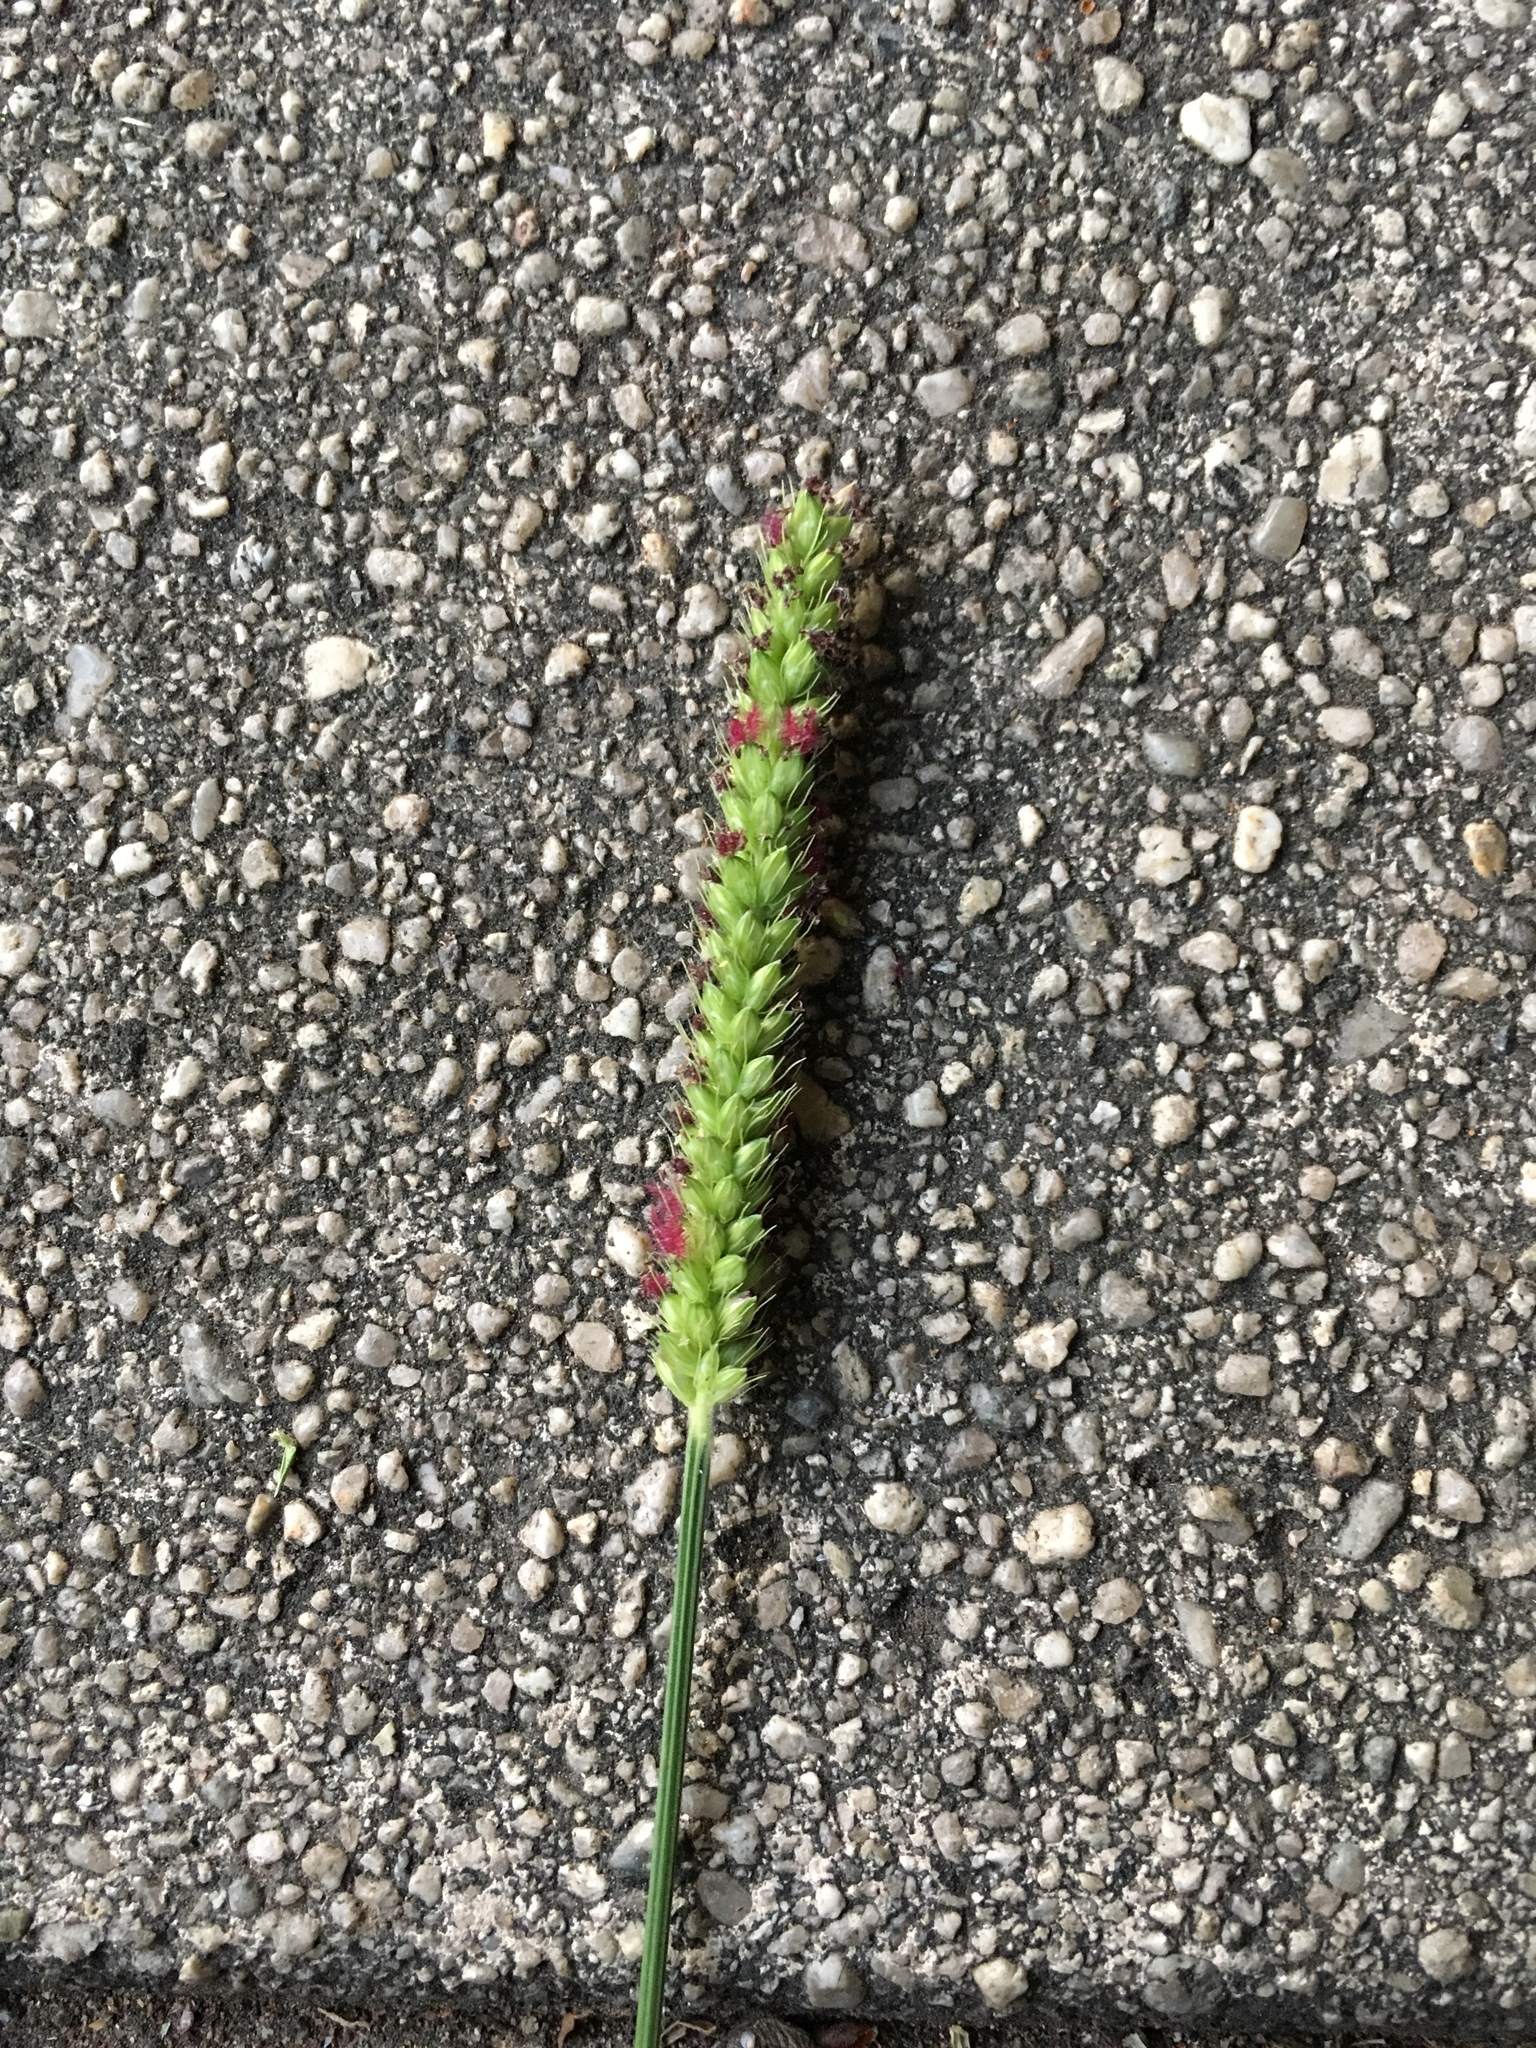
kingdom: Plantae
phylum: Tracheophyta
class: Liliopsida
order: Poales
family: Poaceae
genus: Setaria
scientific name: Setaria parviflora
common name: Knotroot bristle-grass
